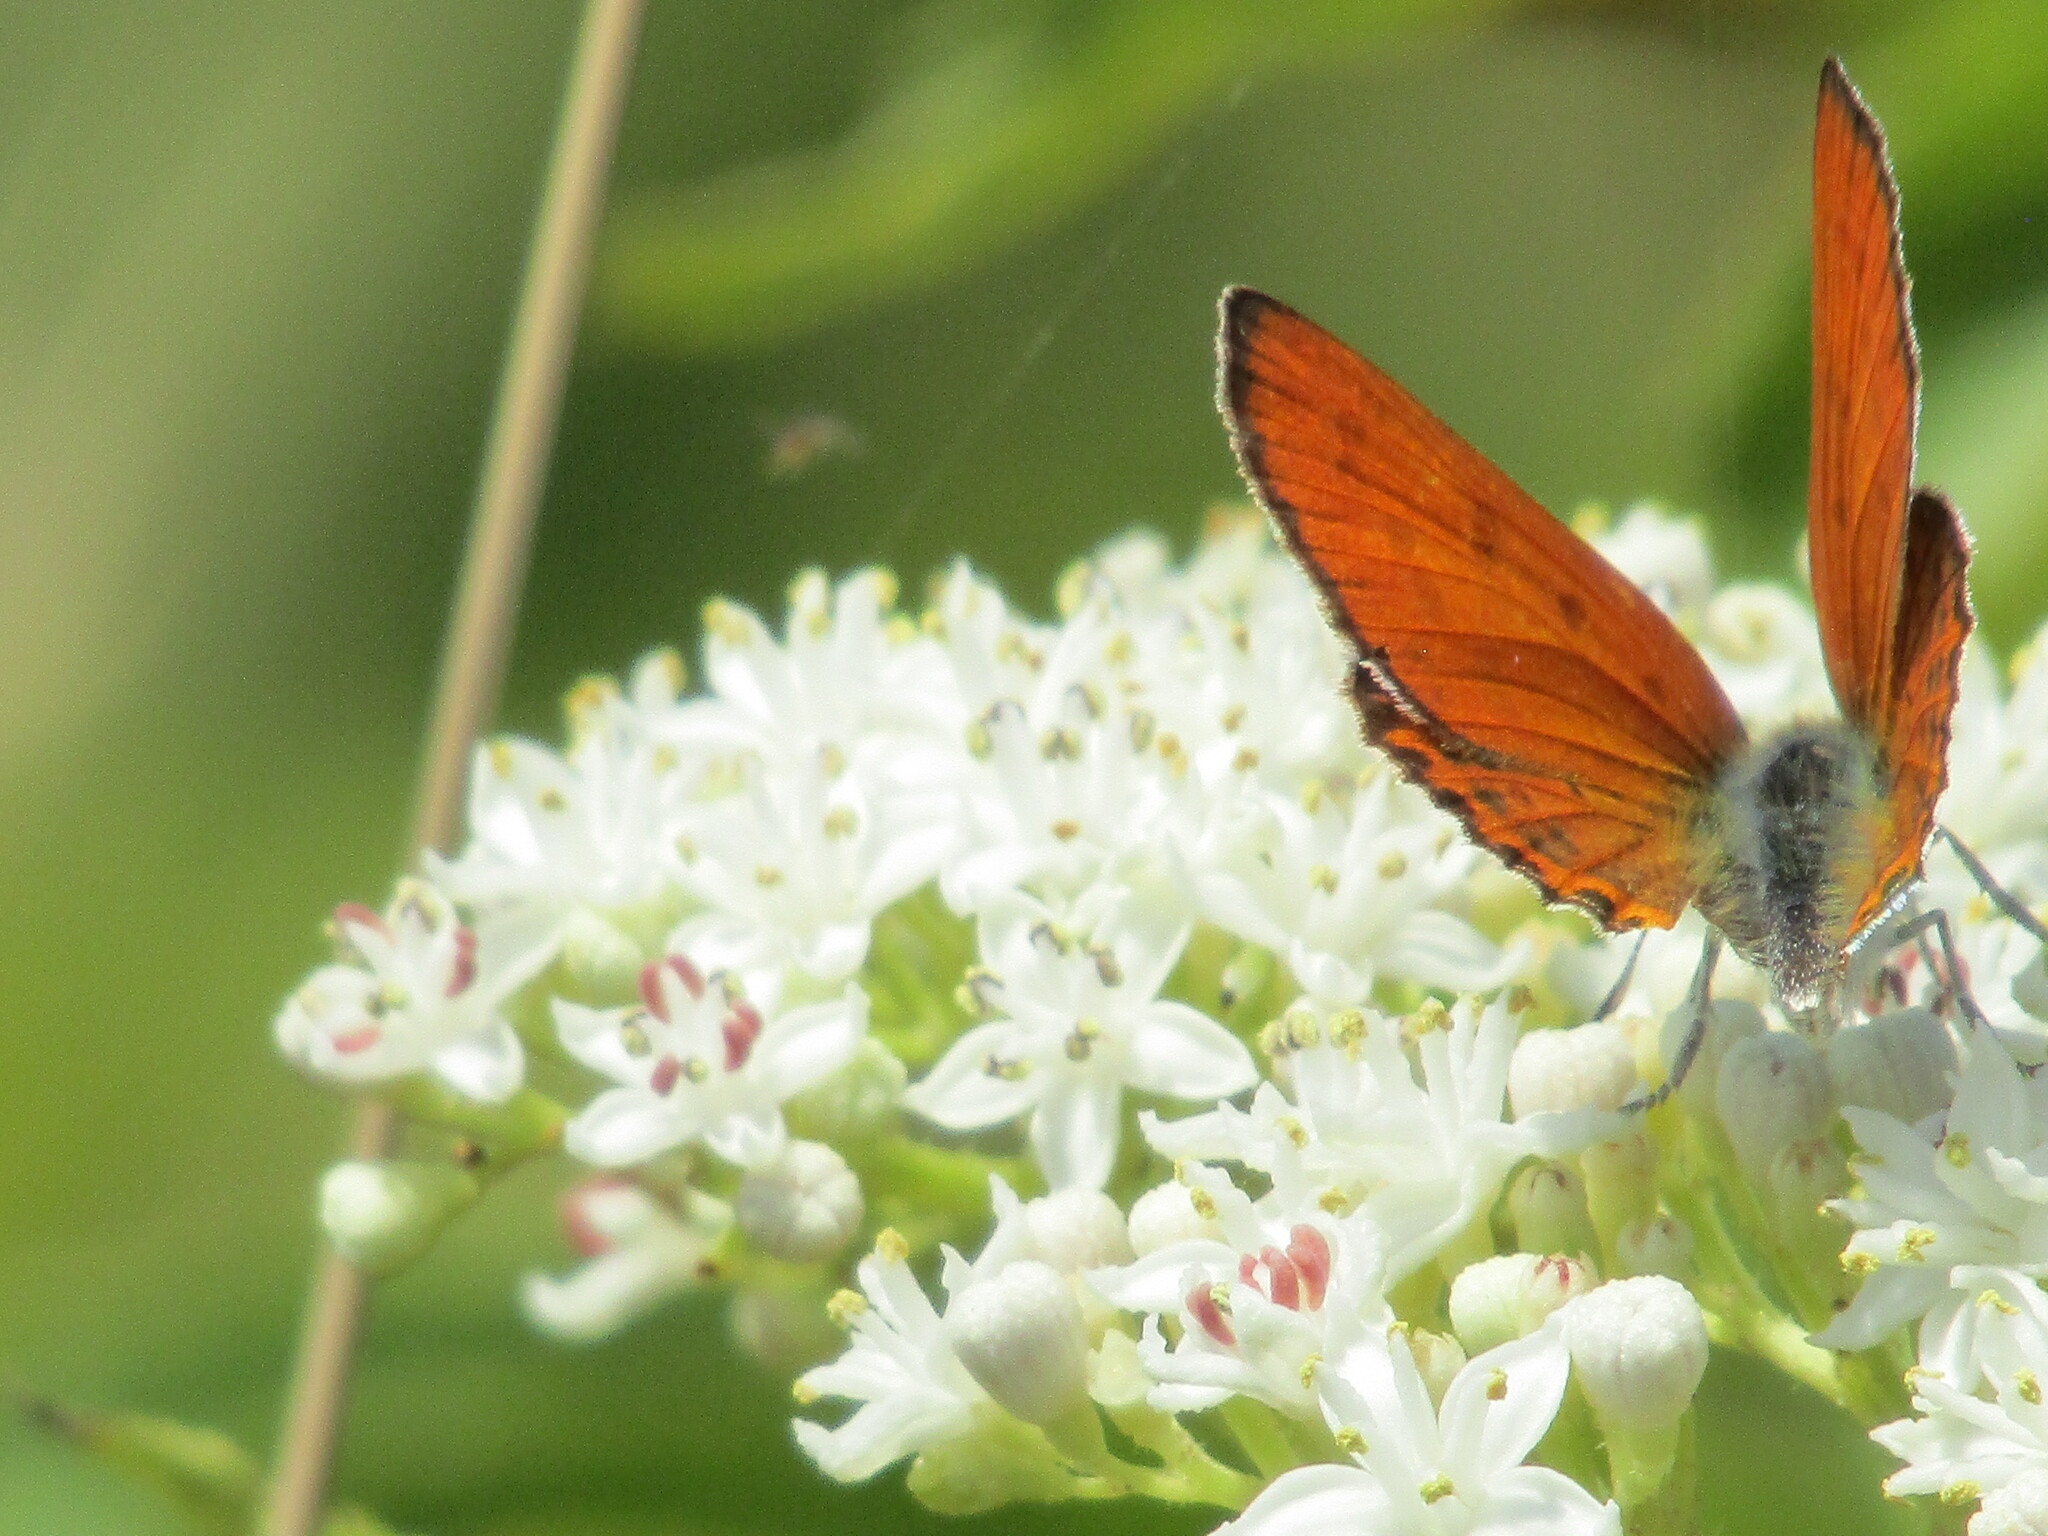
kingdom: Animalia
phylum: Arthropoda
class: Insecta
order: Lepidoptera
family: Lycaenidae
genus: Thersamonia
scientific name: Thersamonia thersamon
